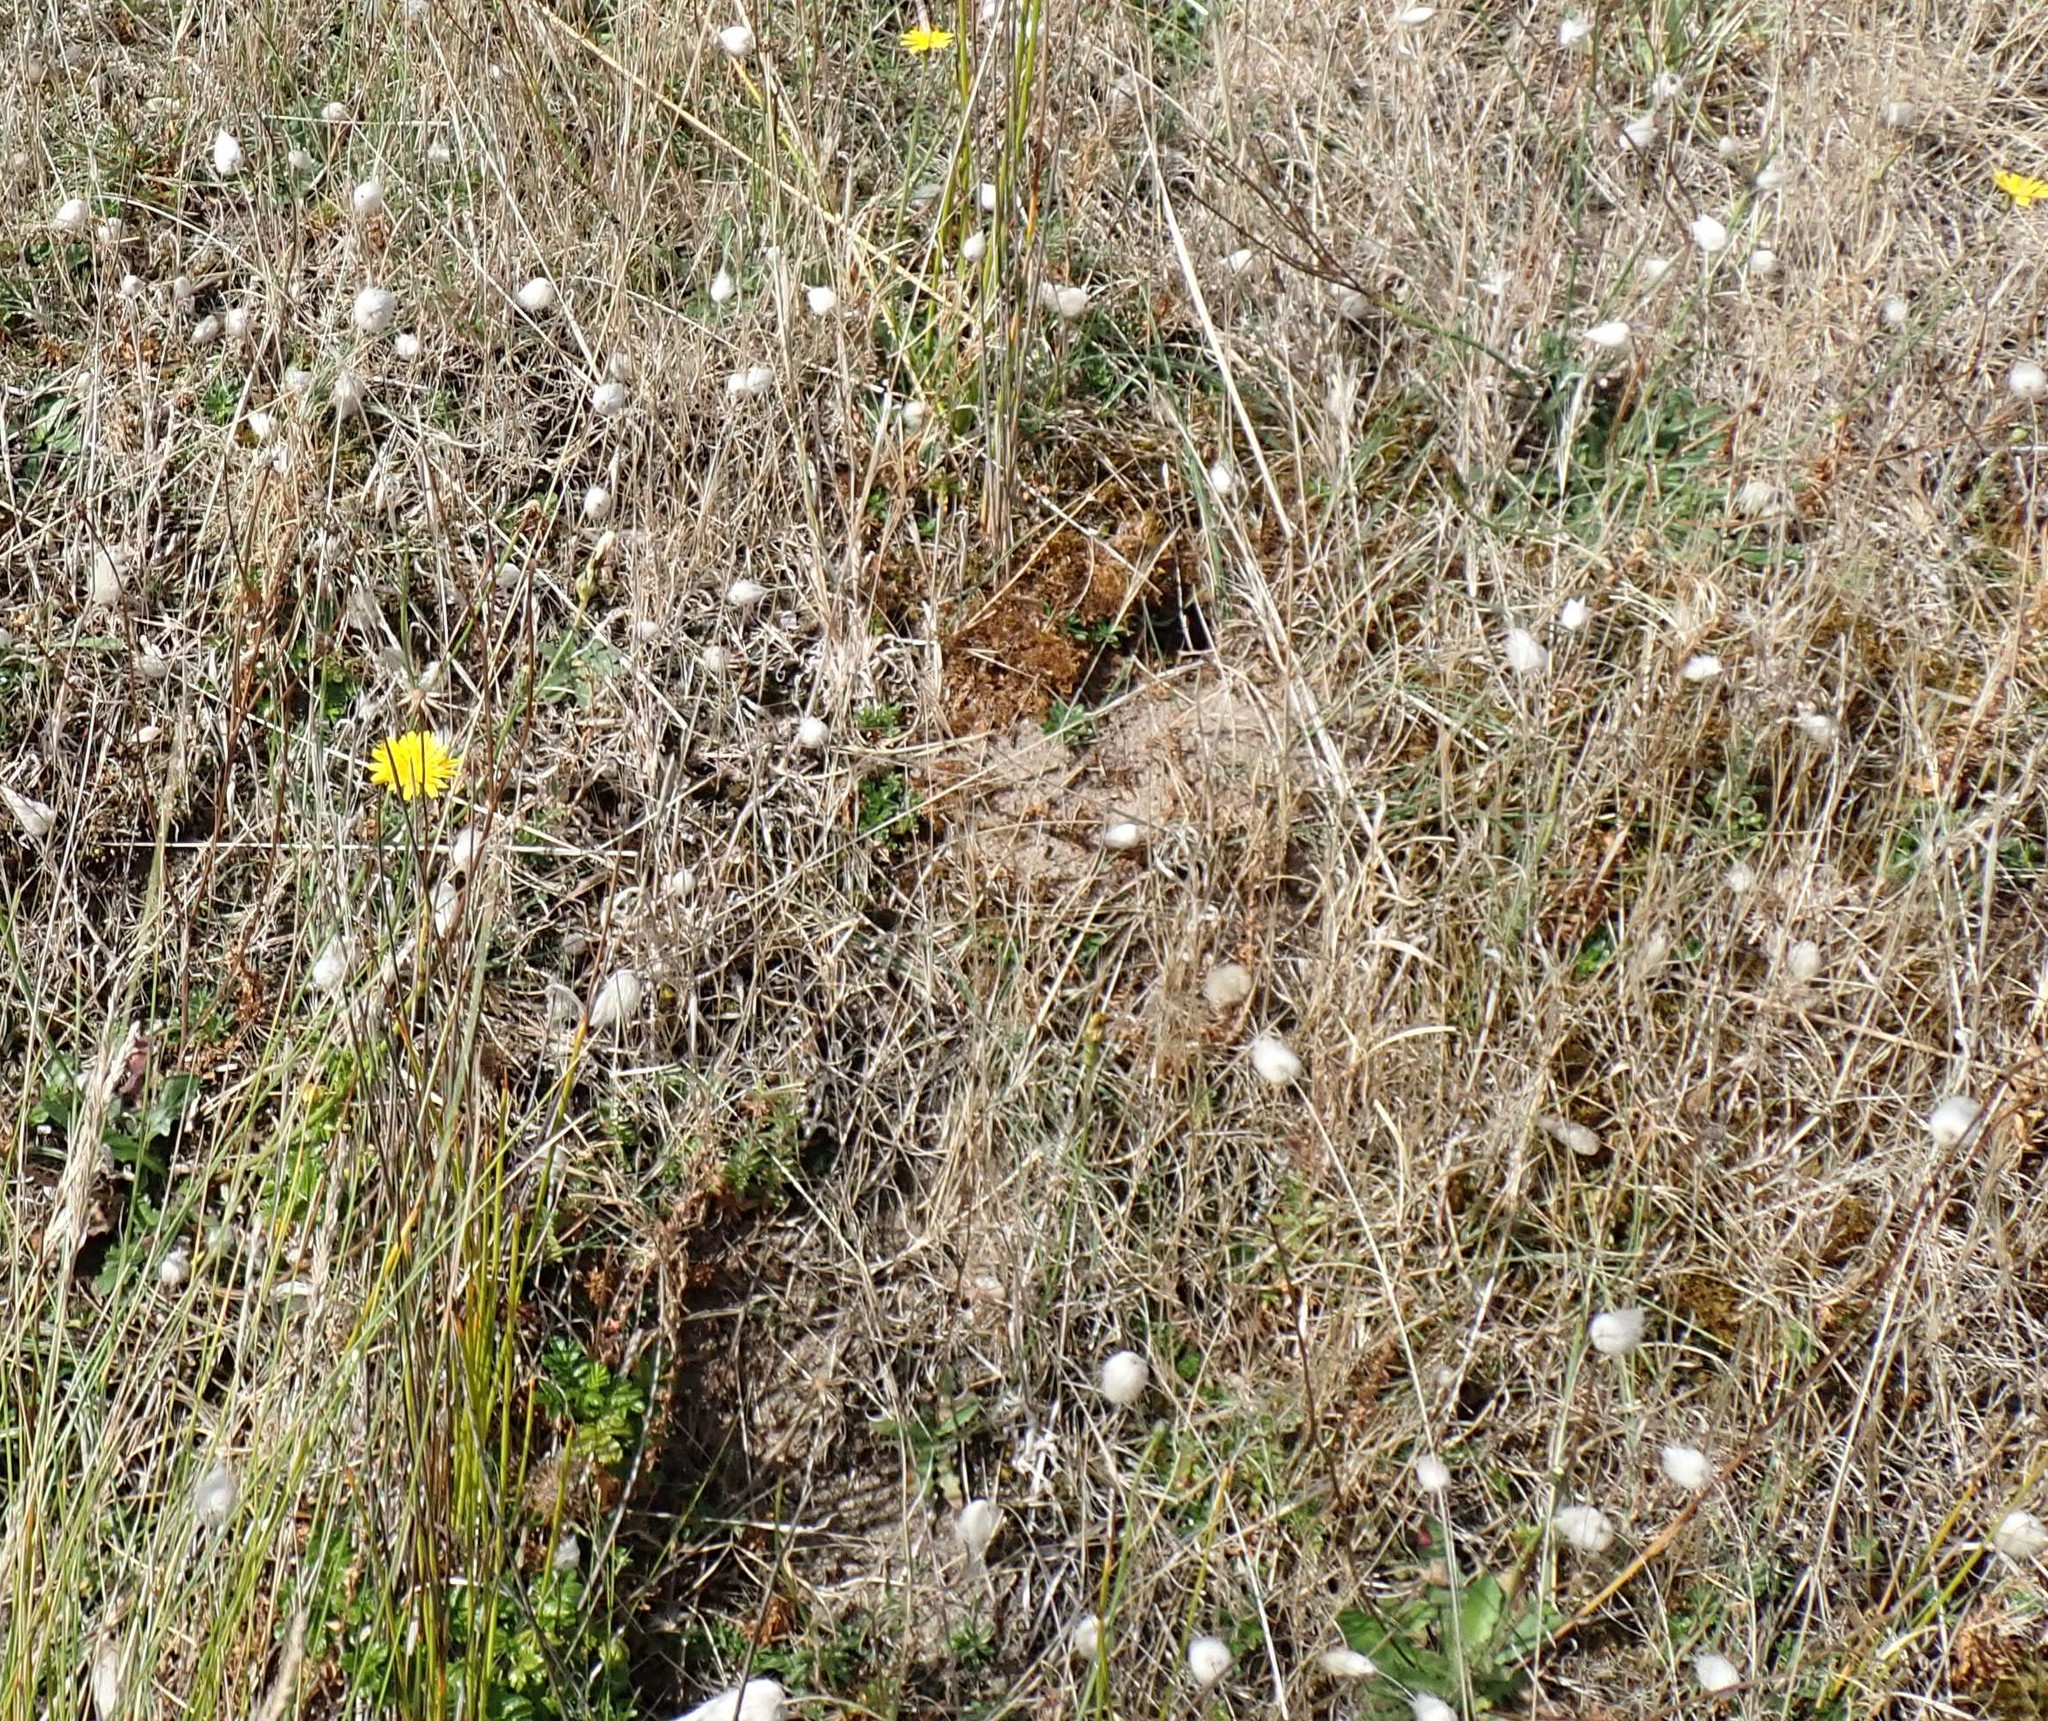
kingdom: Plantae
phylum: Tracheophyta
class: Liliopsida
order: Poales
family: Poaceae
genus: Lagurus
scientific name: Lagurus ovatus
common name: Hare's-tail
